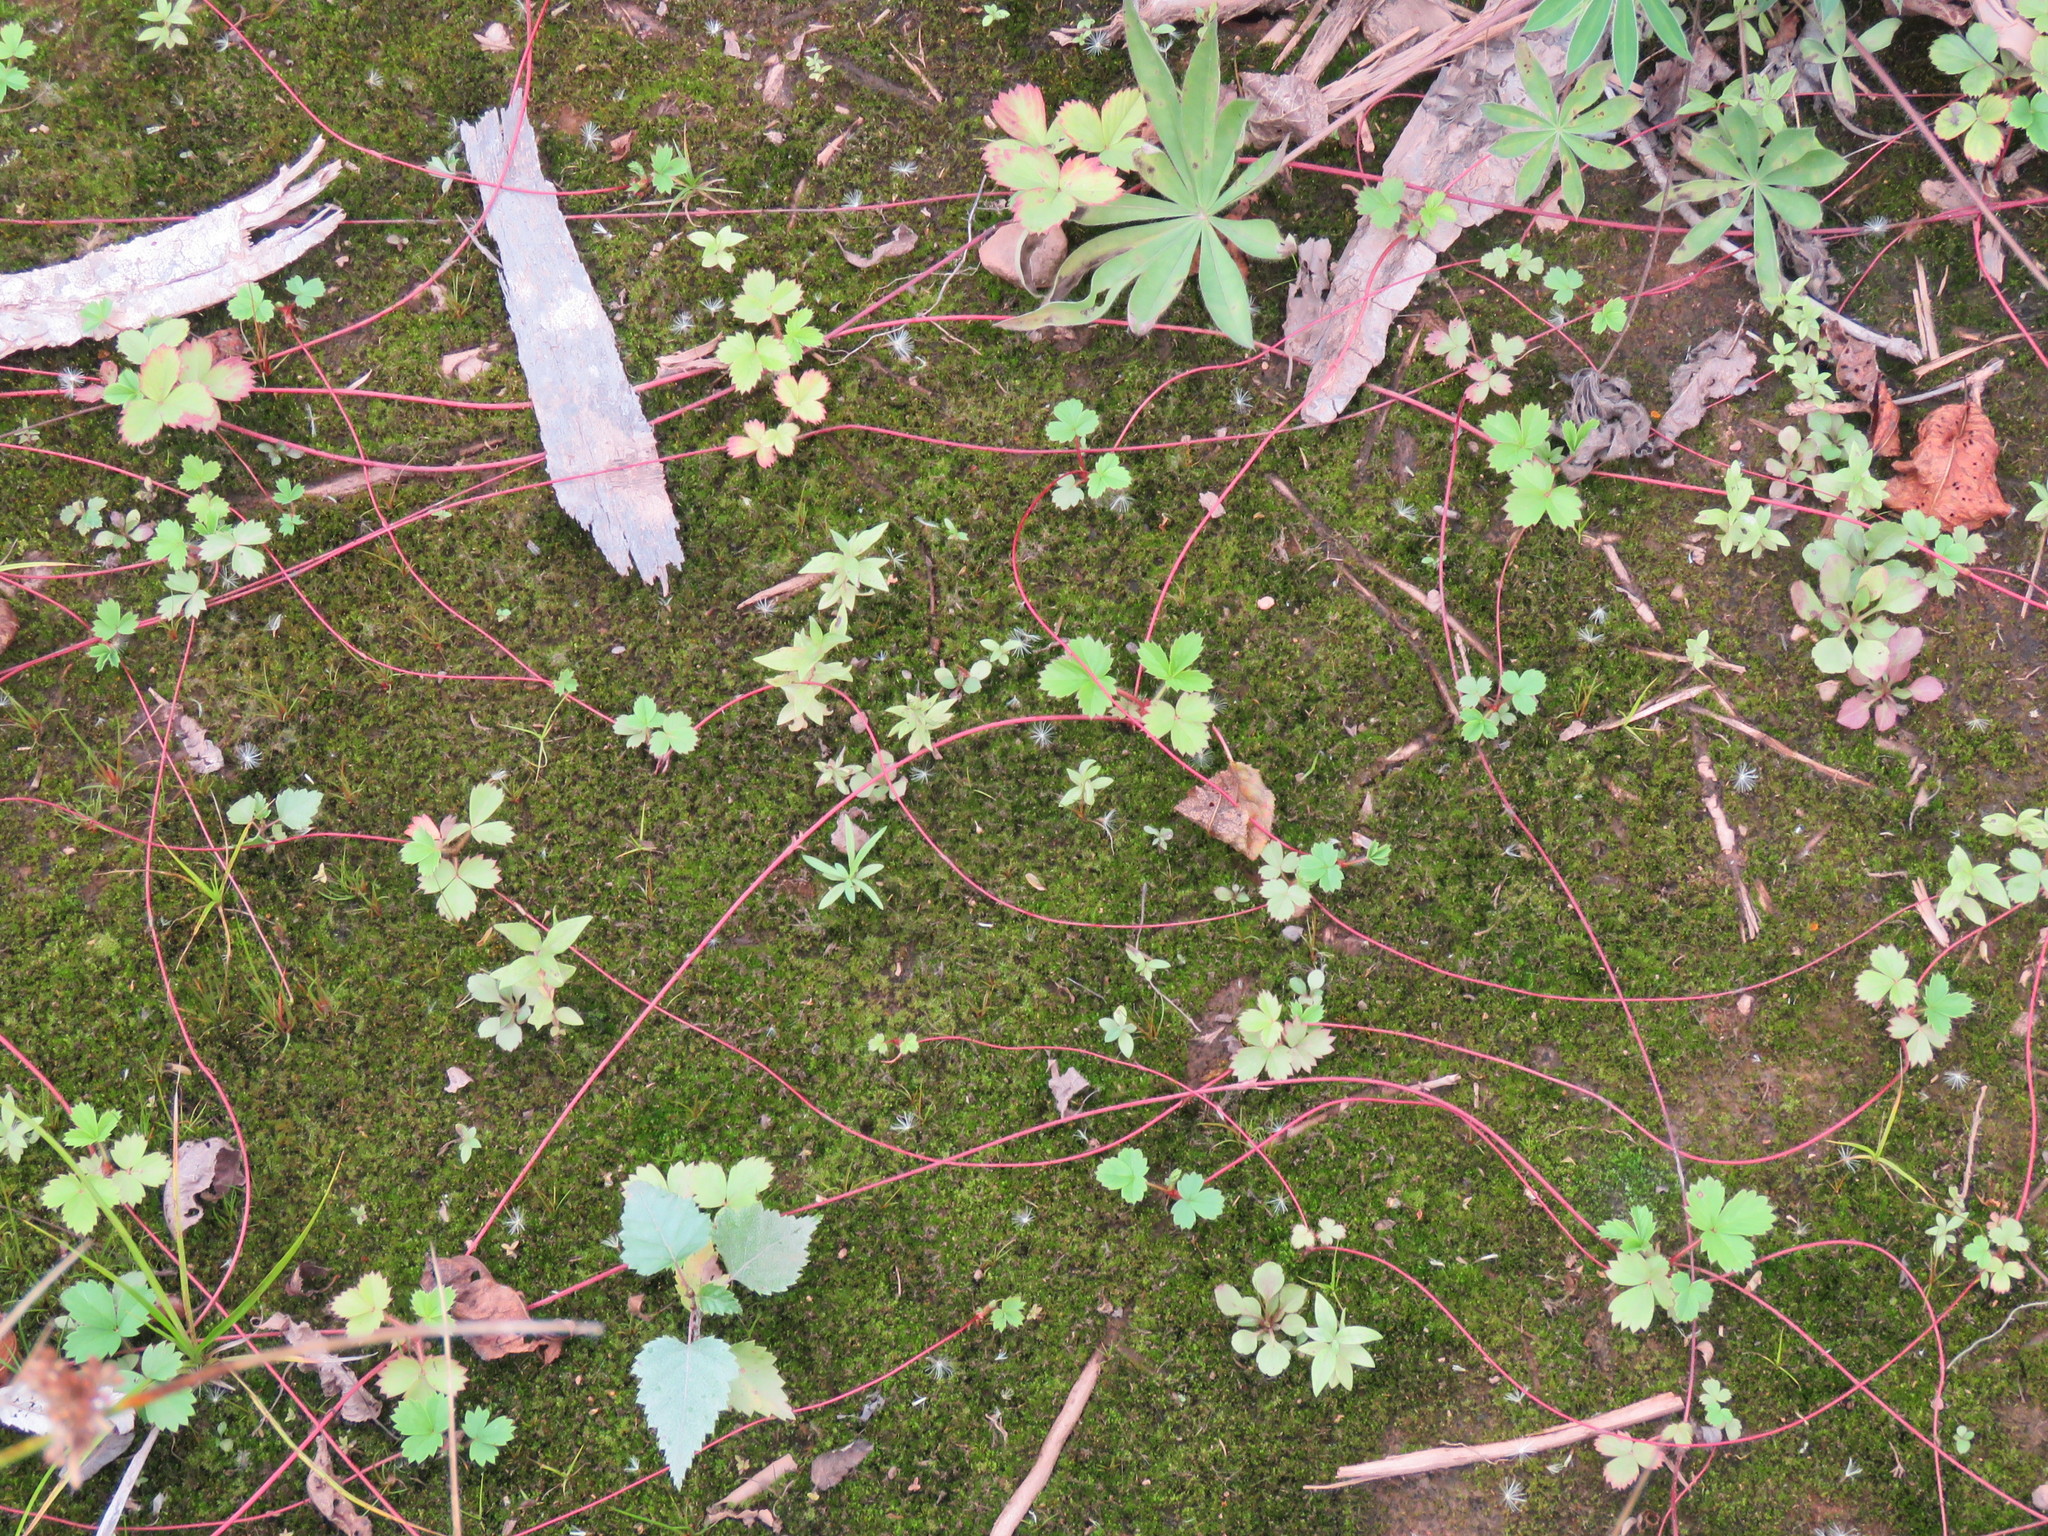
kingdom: Plantae
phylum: Tracheophyta
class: Magnoliopsida
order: Rosales
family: Rosaceae
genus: Fragaria
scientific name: Fragaria virginiana
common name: Thickleaved wild strawberry
